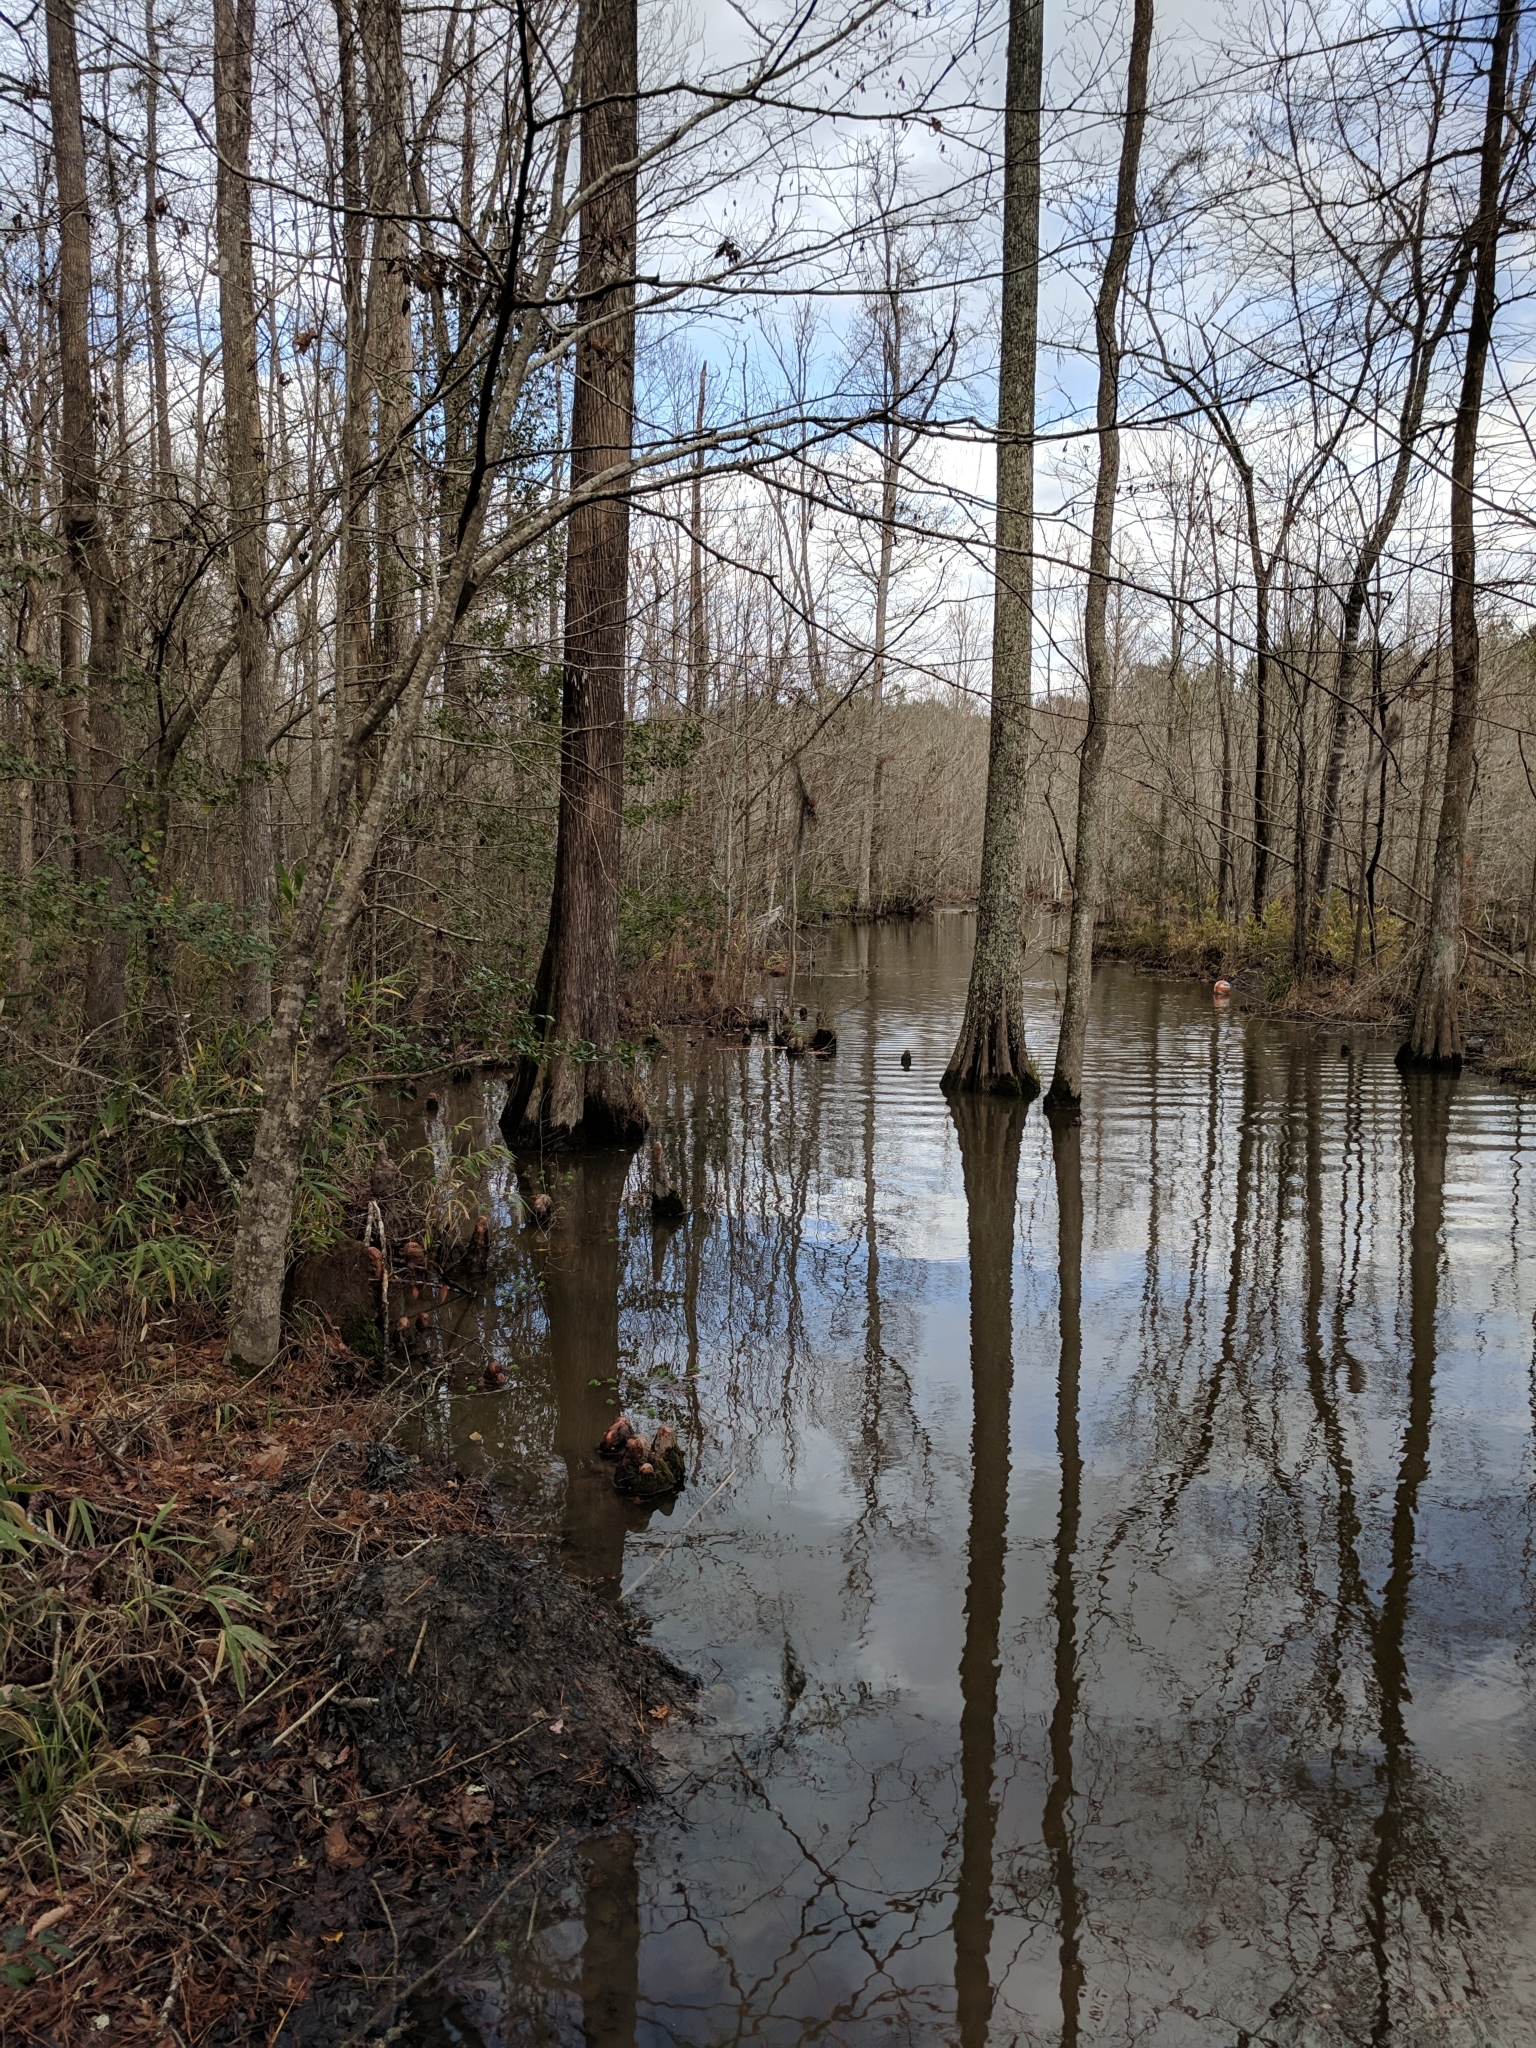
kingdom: Plantae
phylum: Tracheophyta
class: Pinopsida
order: Pinales
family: Cupressaceae
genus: Taxodium
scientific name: Taxodium distichum
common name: Bald cypress
